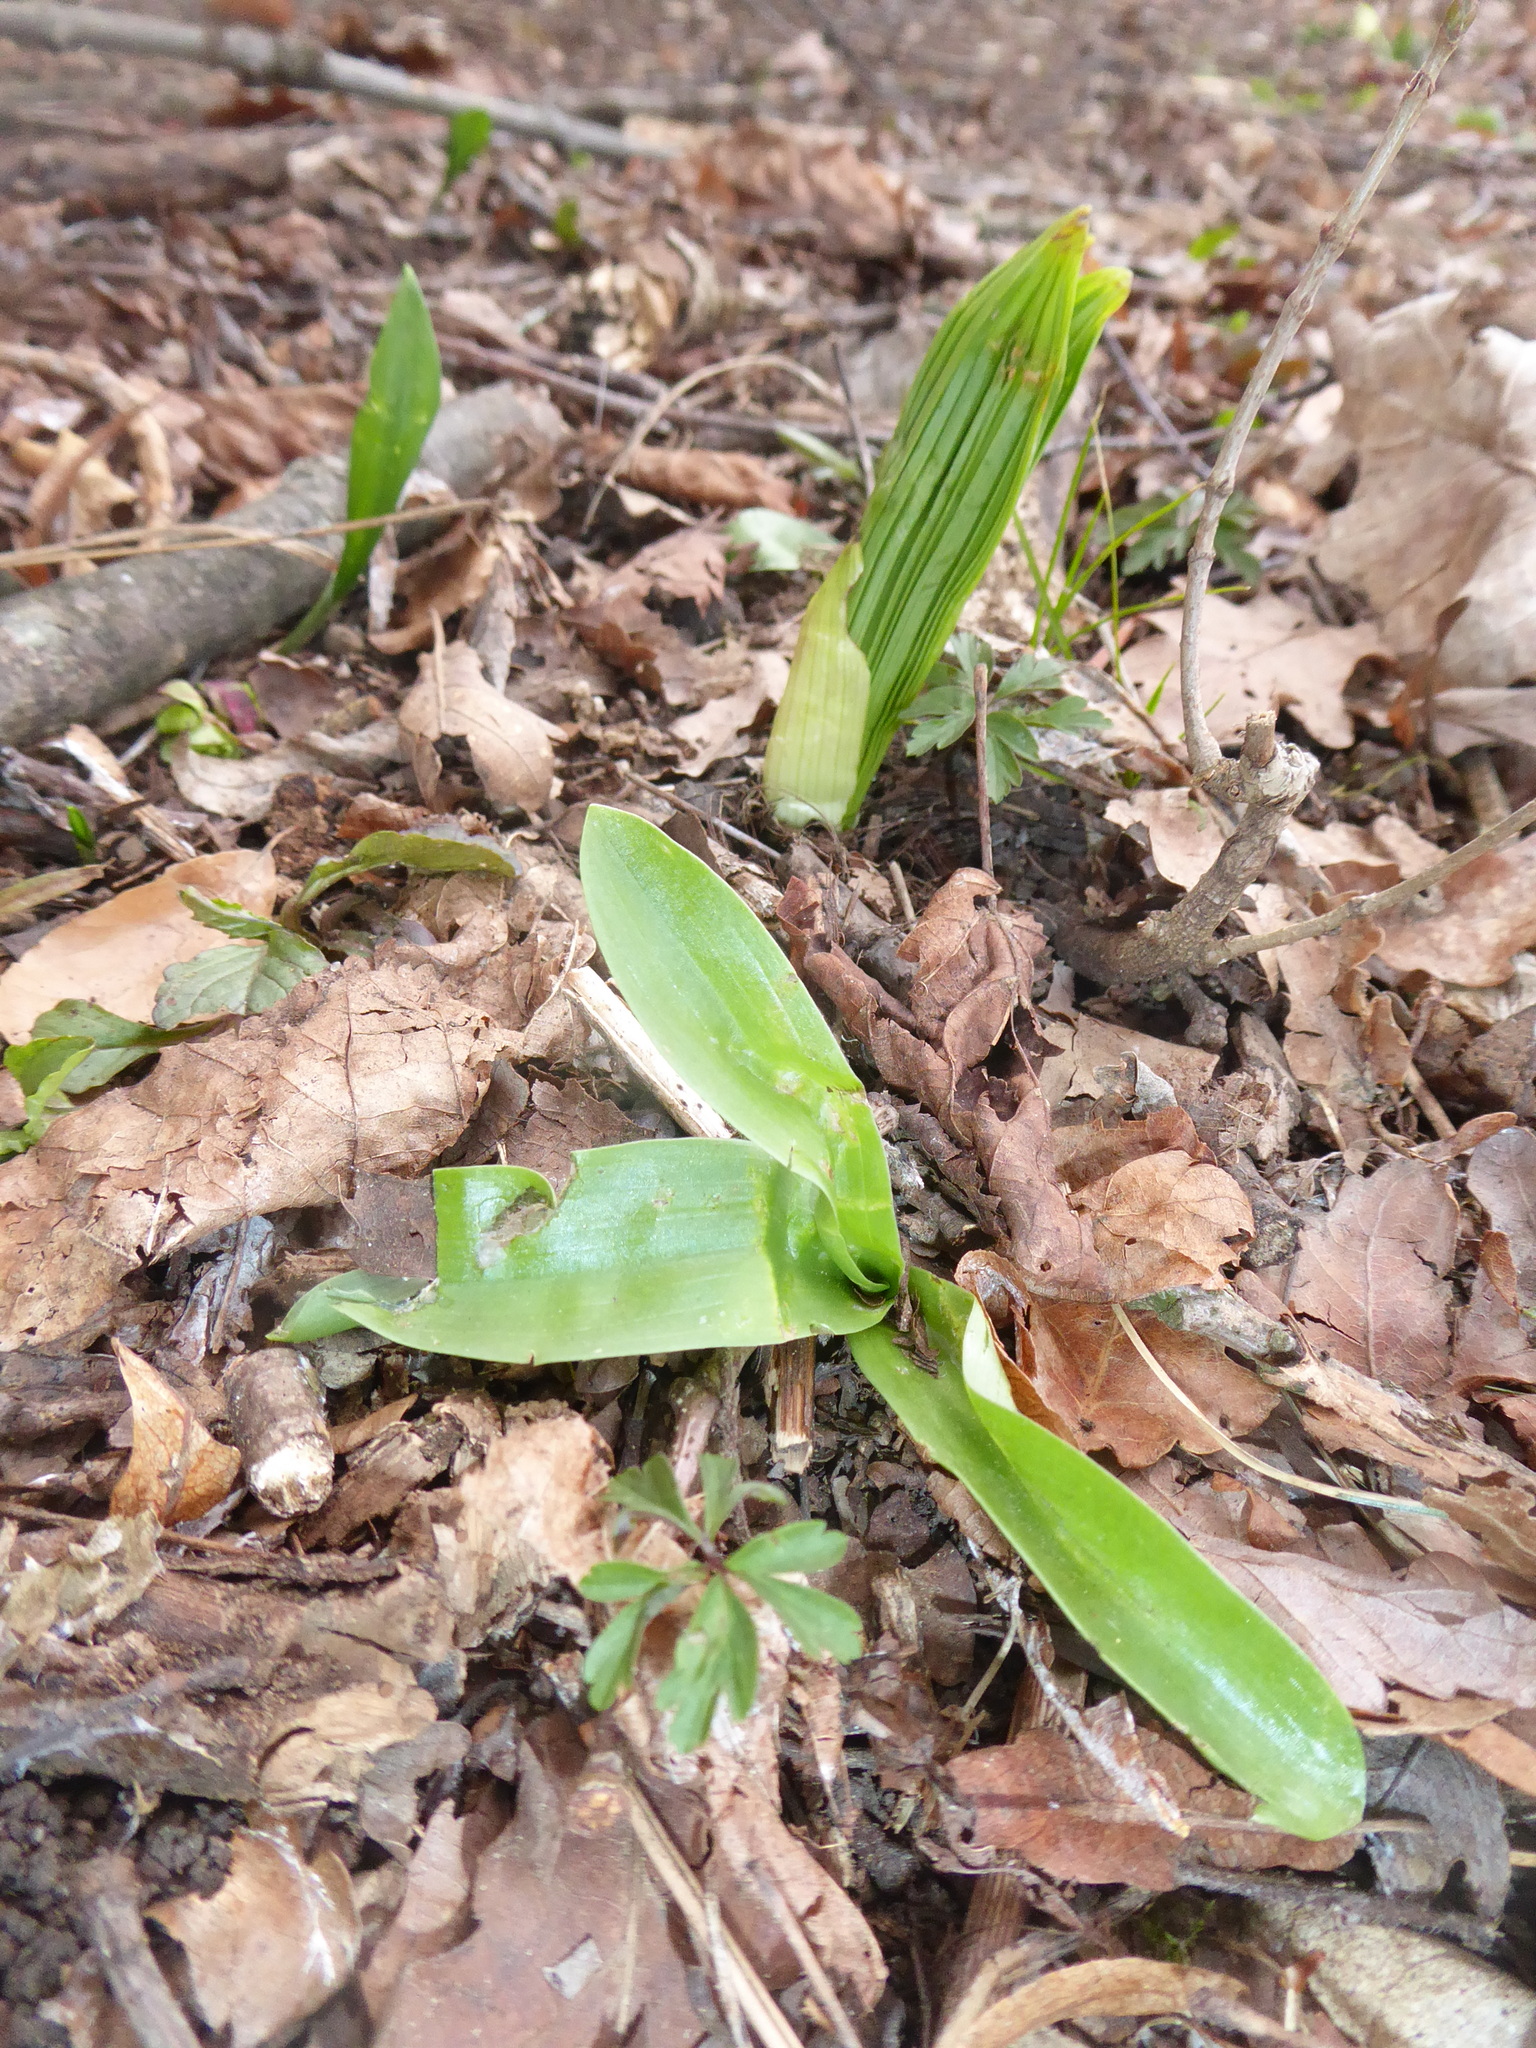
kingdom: Plantae
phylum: Tracheophyta
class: Liliopsida
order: Asparagales
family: Orchidaceae
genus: Orchis
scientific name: Orchis pallens
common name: Pale-flowered orchid
